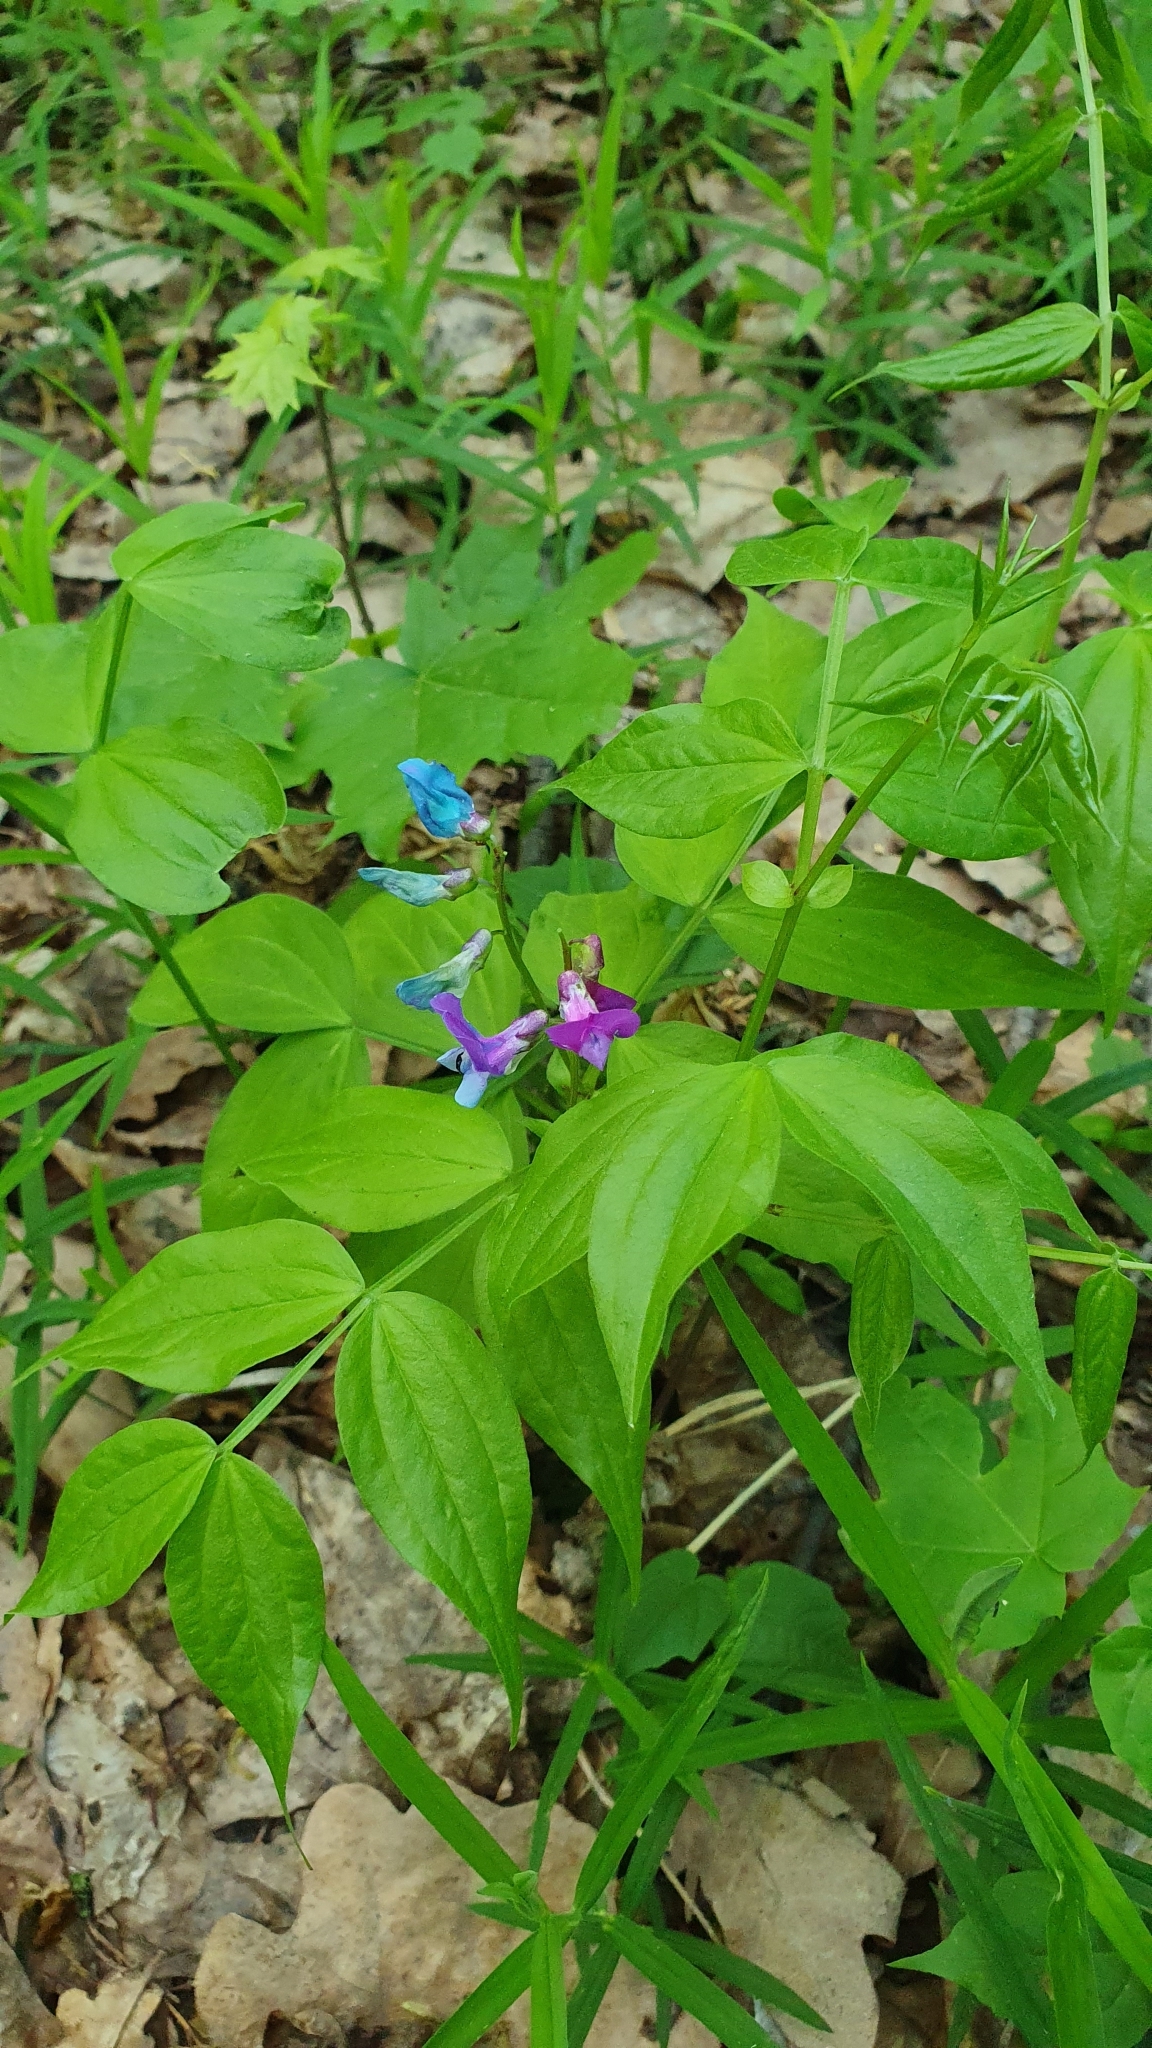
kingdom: Plantae
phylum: Tracheophyta
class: Magnoliopsida
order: Fabales
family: Fabaceae
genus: Lathyrus
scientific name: Lathyrus vernus
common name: Spring pea
